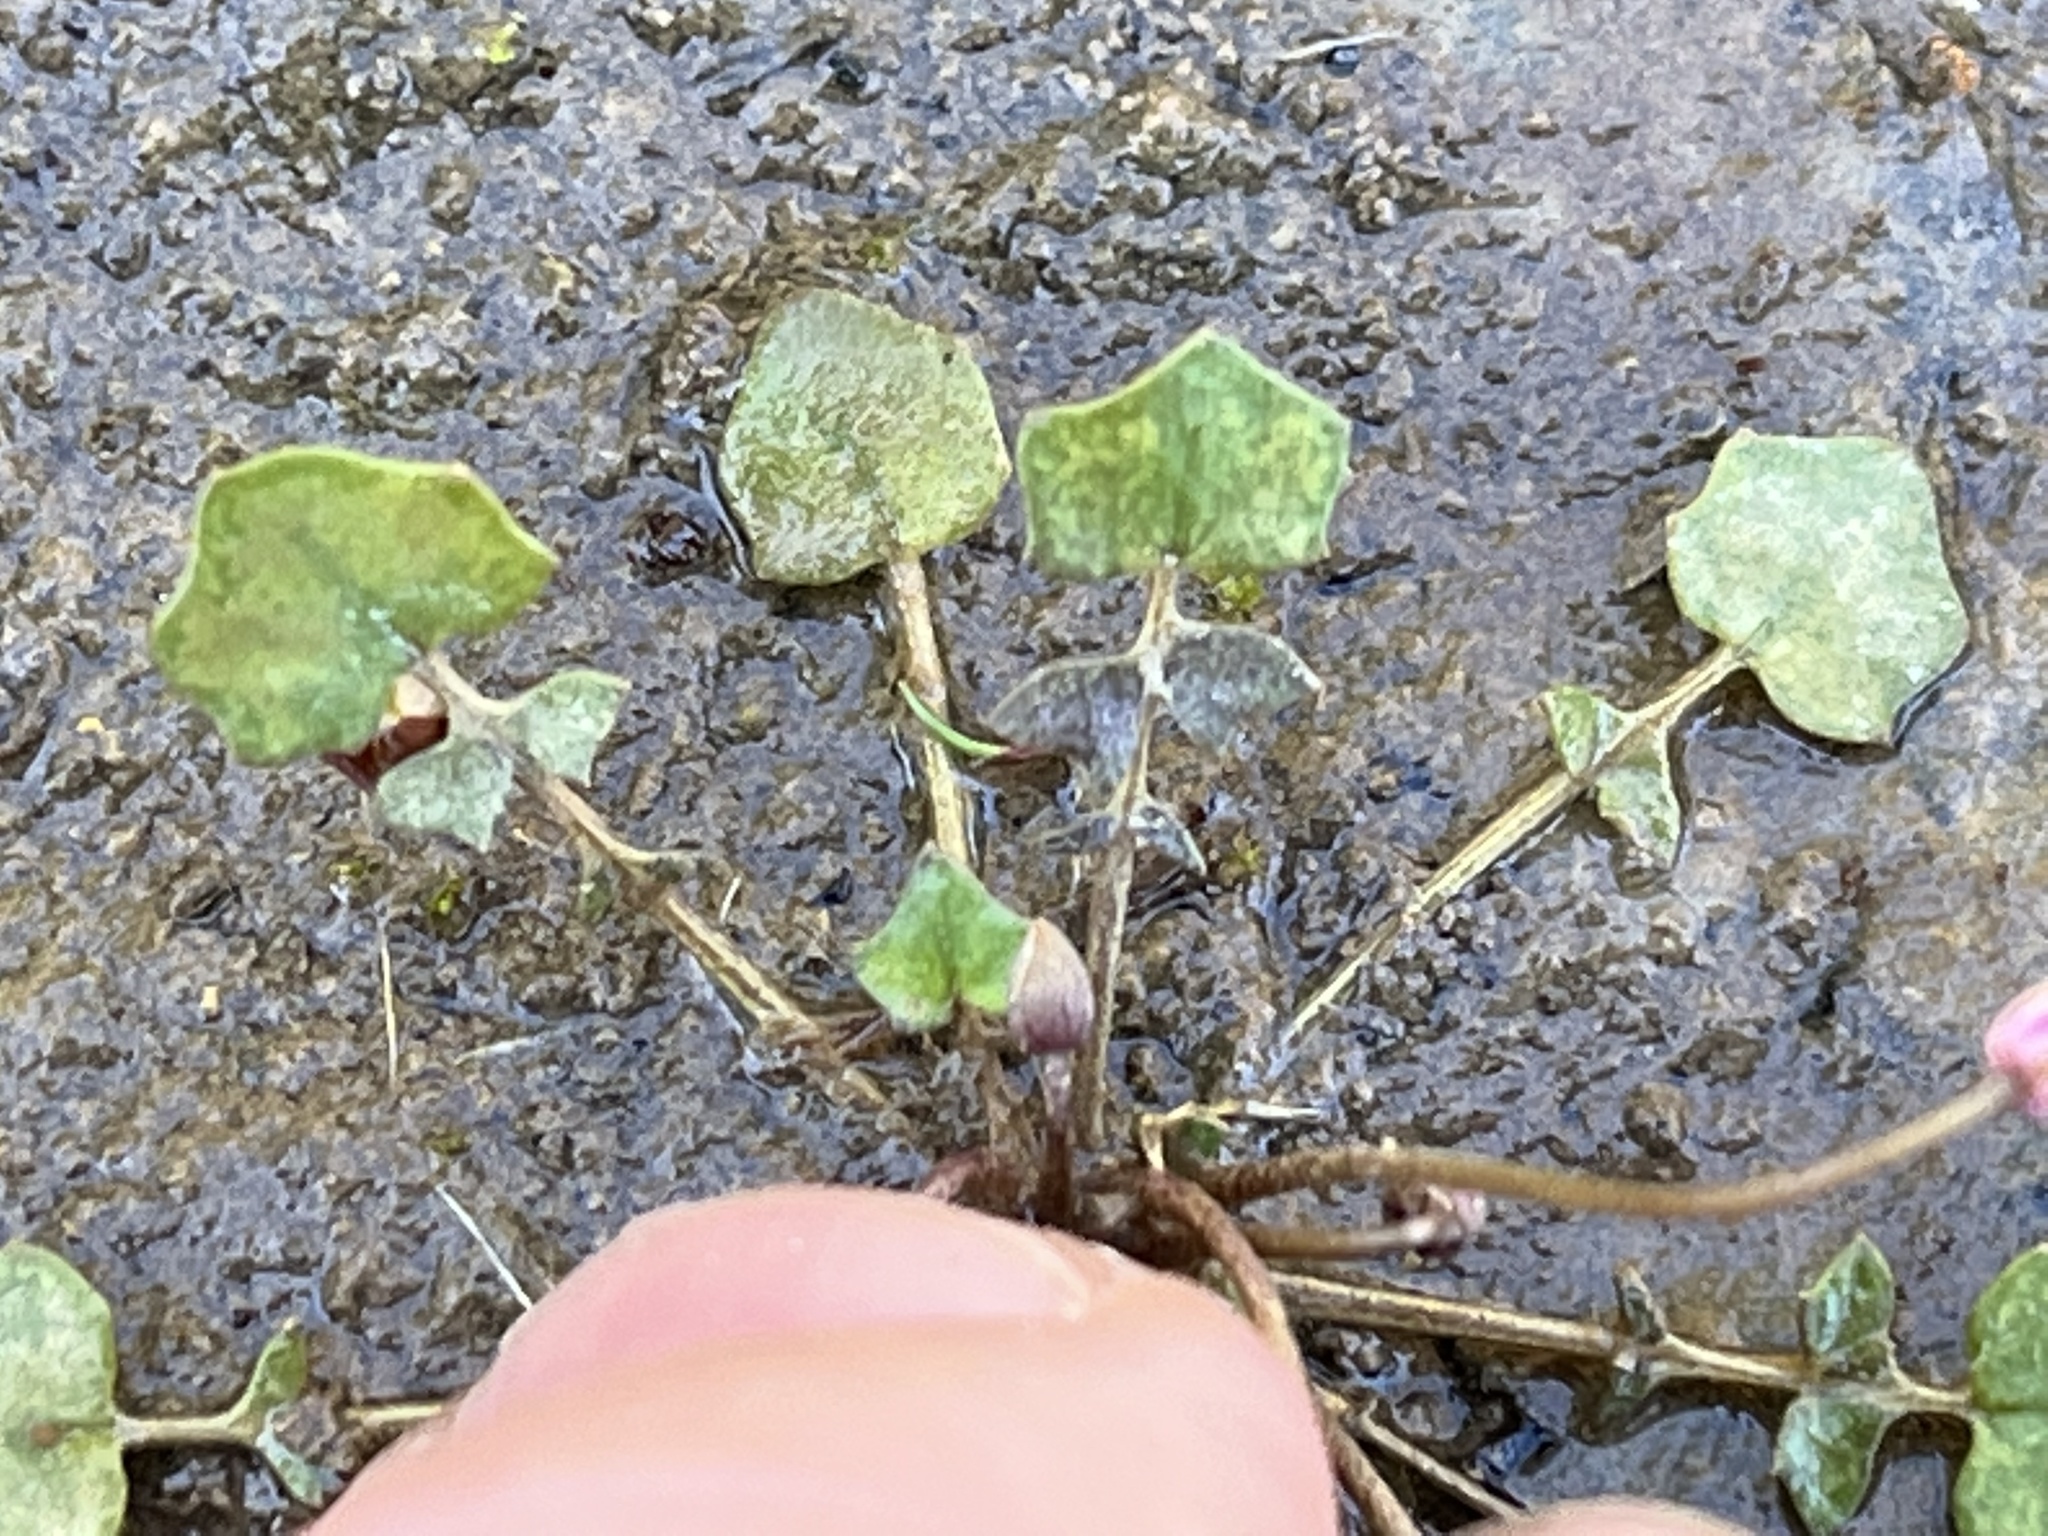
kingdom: Plantae
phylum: Tracheophyta
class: Magnoliopsida
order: Brassicales
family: Brassicaceae
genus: Leavenworthia
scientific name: Leavenworthia exigua
